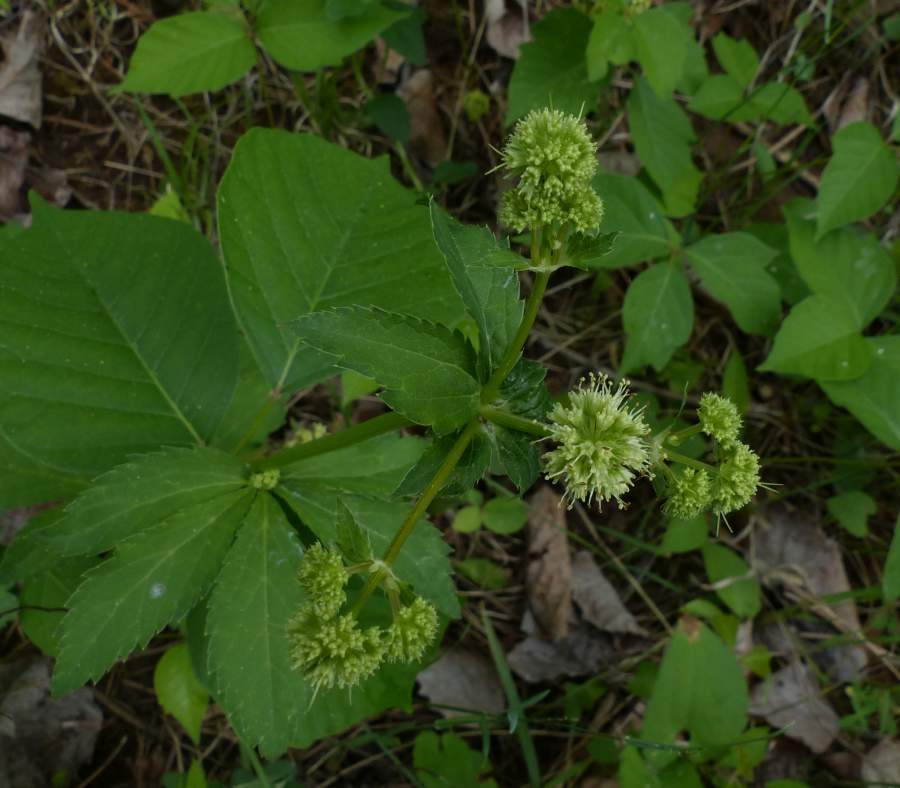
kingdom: Plantae
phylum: Tracheophyta
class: Magnoliopsida
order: Apiales
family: Apiaceae
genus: Sanicula
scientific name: Sanicula marilandica
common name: Black snakeroot
